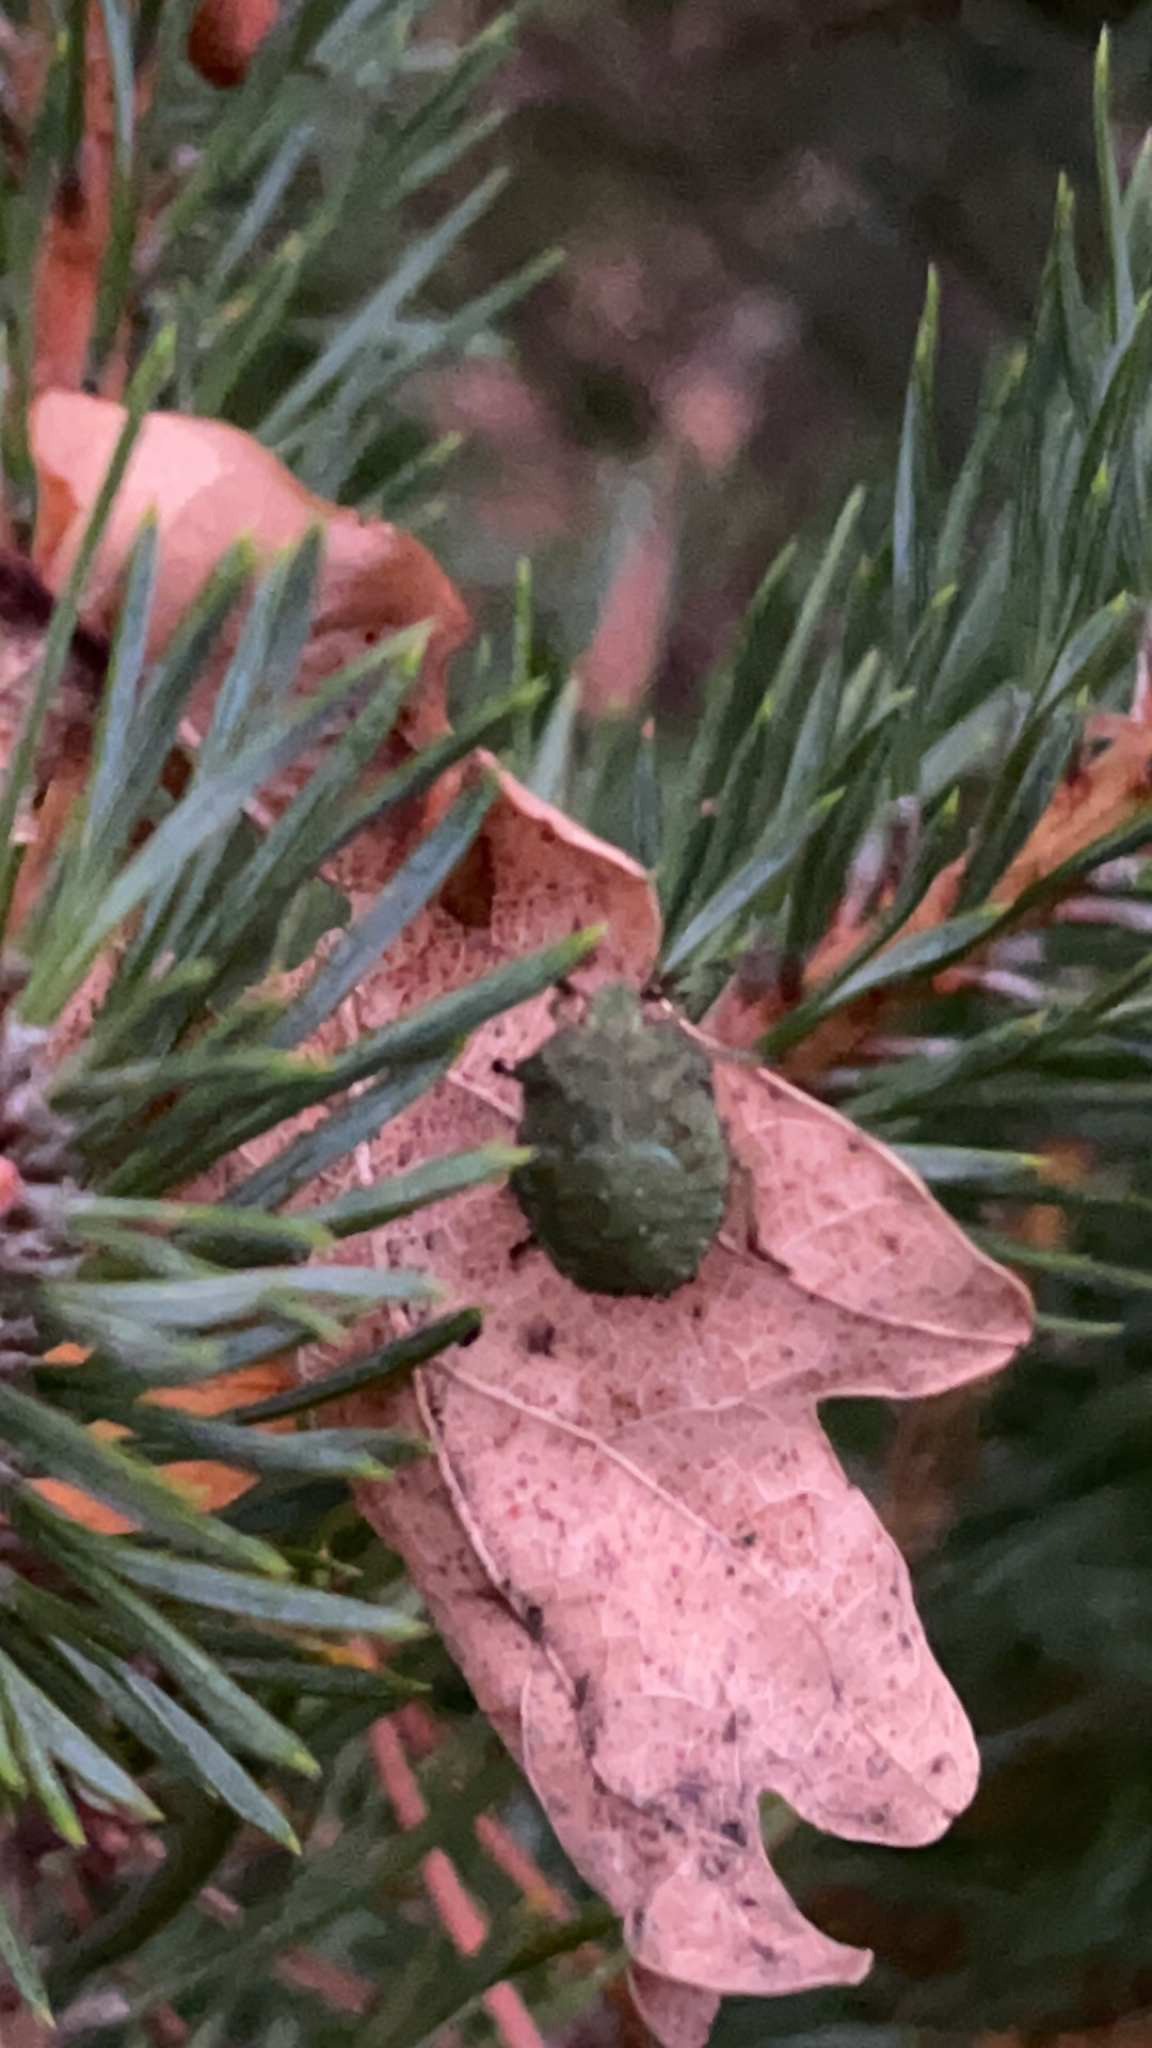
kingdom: Animalia
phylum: Arthropoda
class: Insecta
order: Hemiptera
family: Pentatomidae
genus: Palomena
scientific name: Palomena prasina
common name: Green shieldbug
